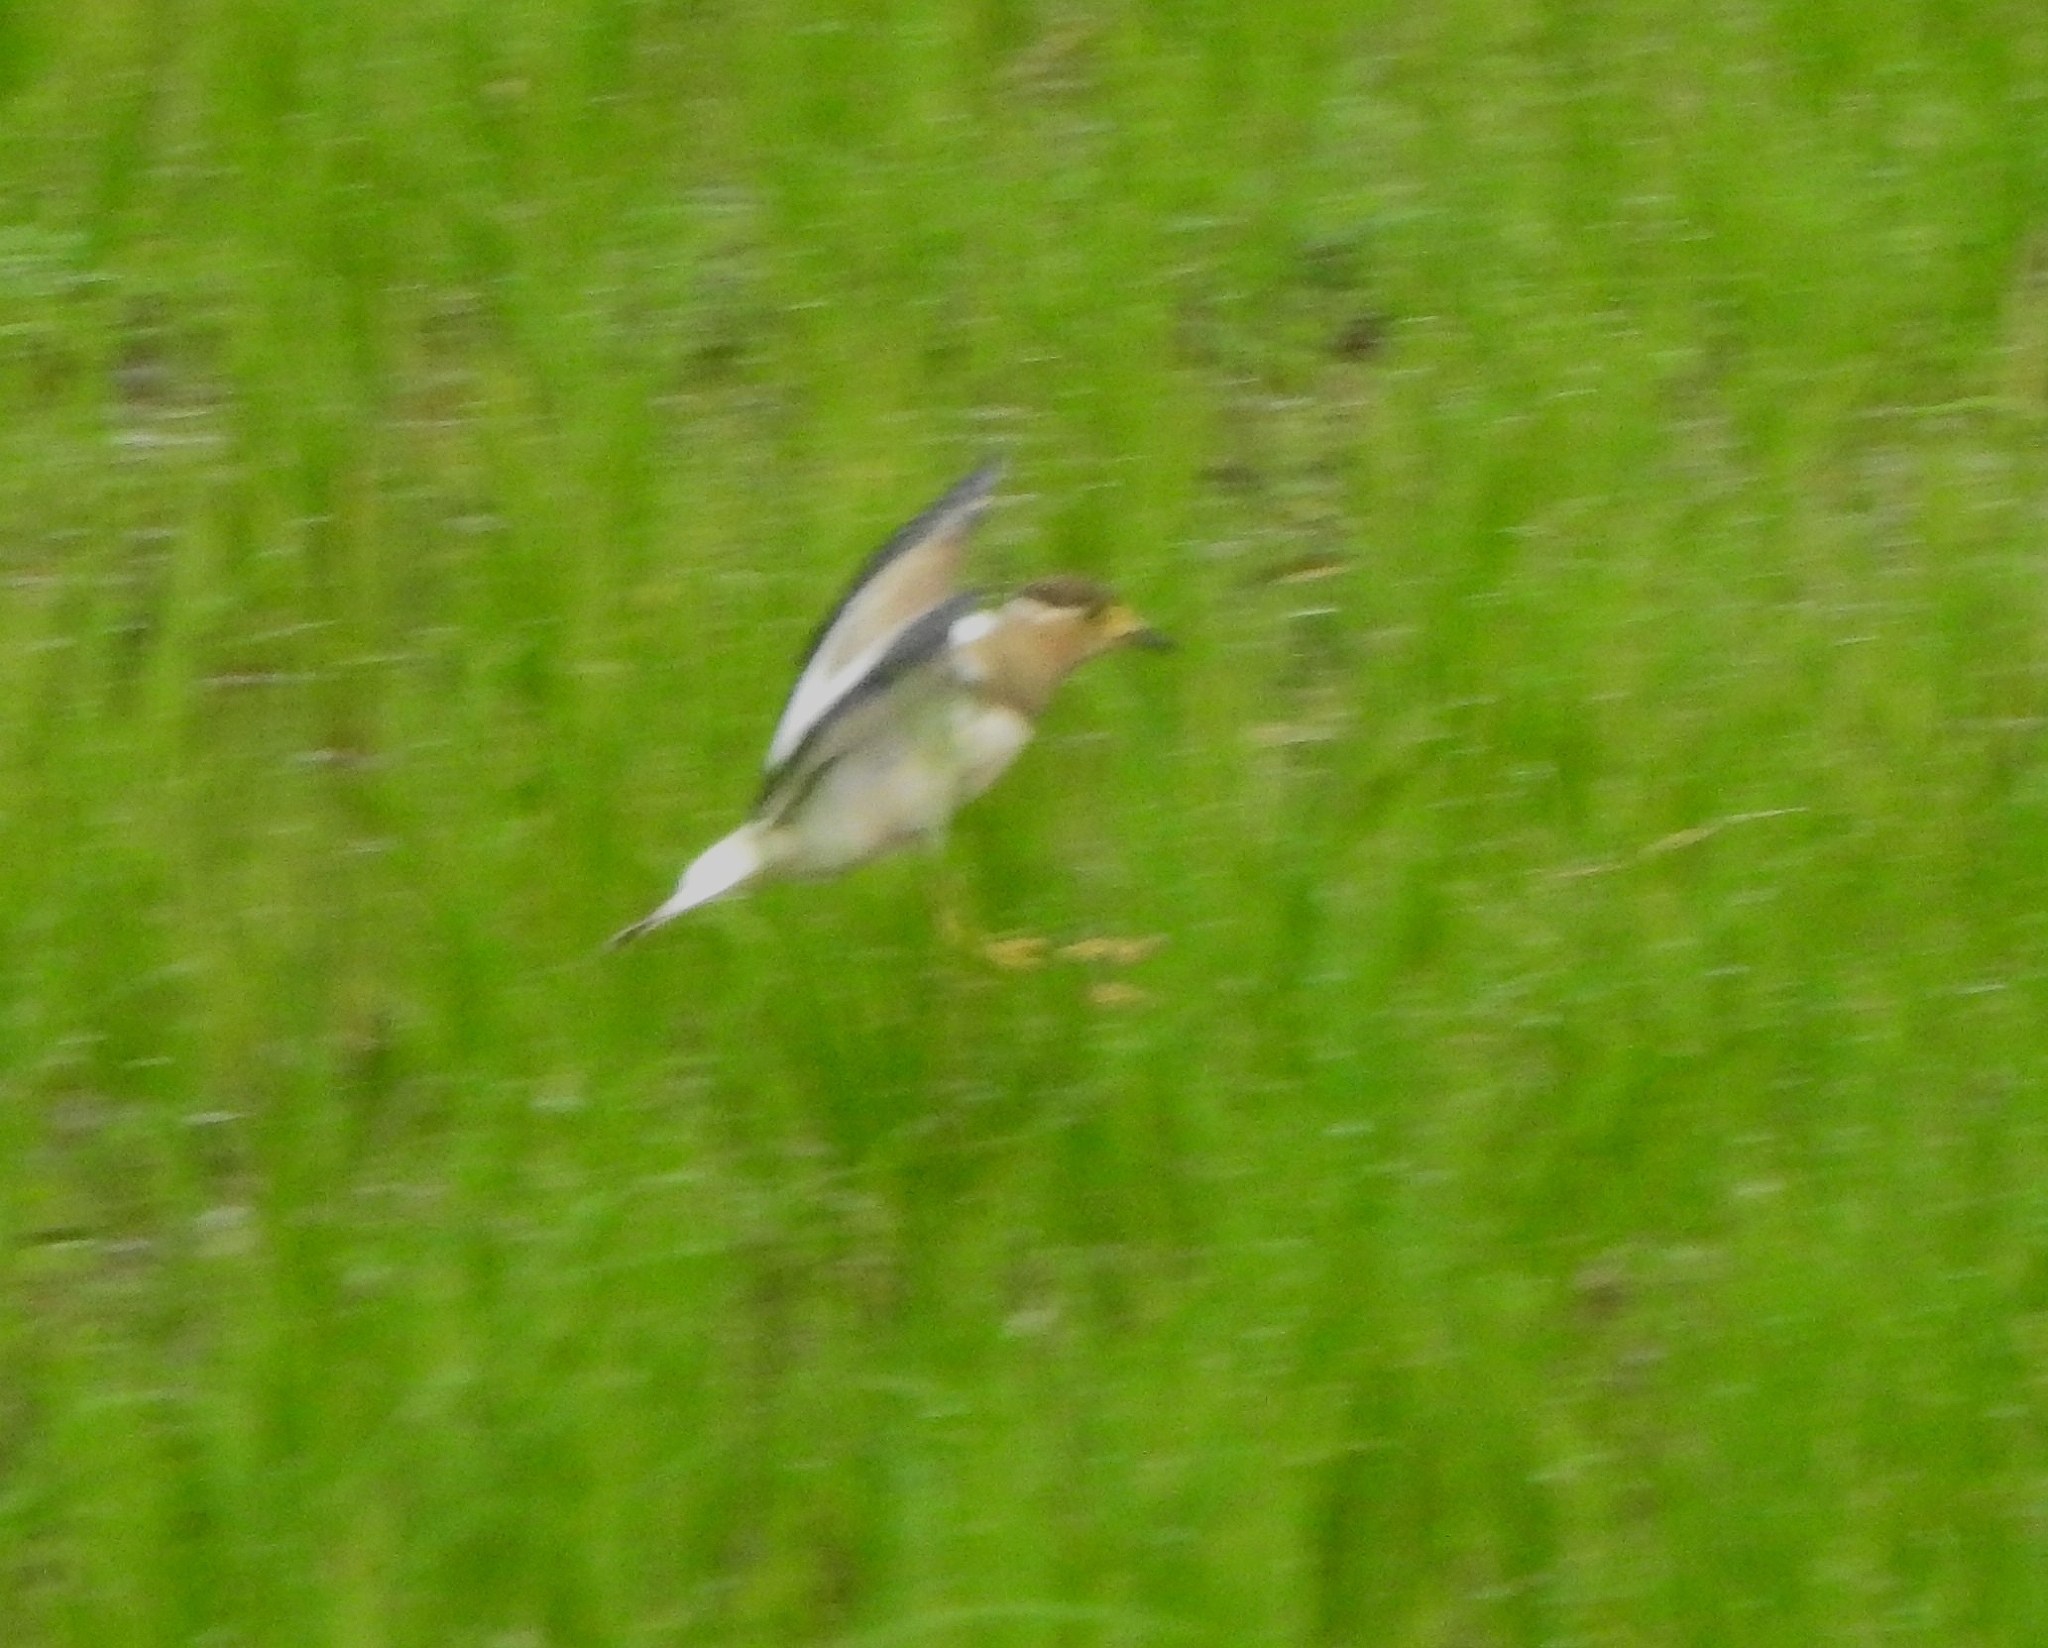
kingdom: Animalia
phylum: Chordata
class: Aves
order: Charadriiformes
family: Charadriidae
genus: Vanellus
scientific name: Vanellus malabaricus
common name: Yellow-wattled lapwing
